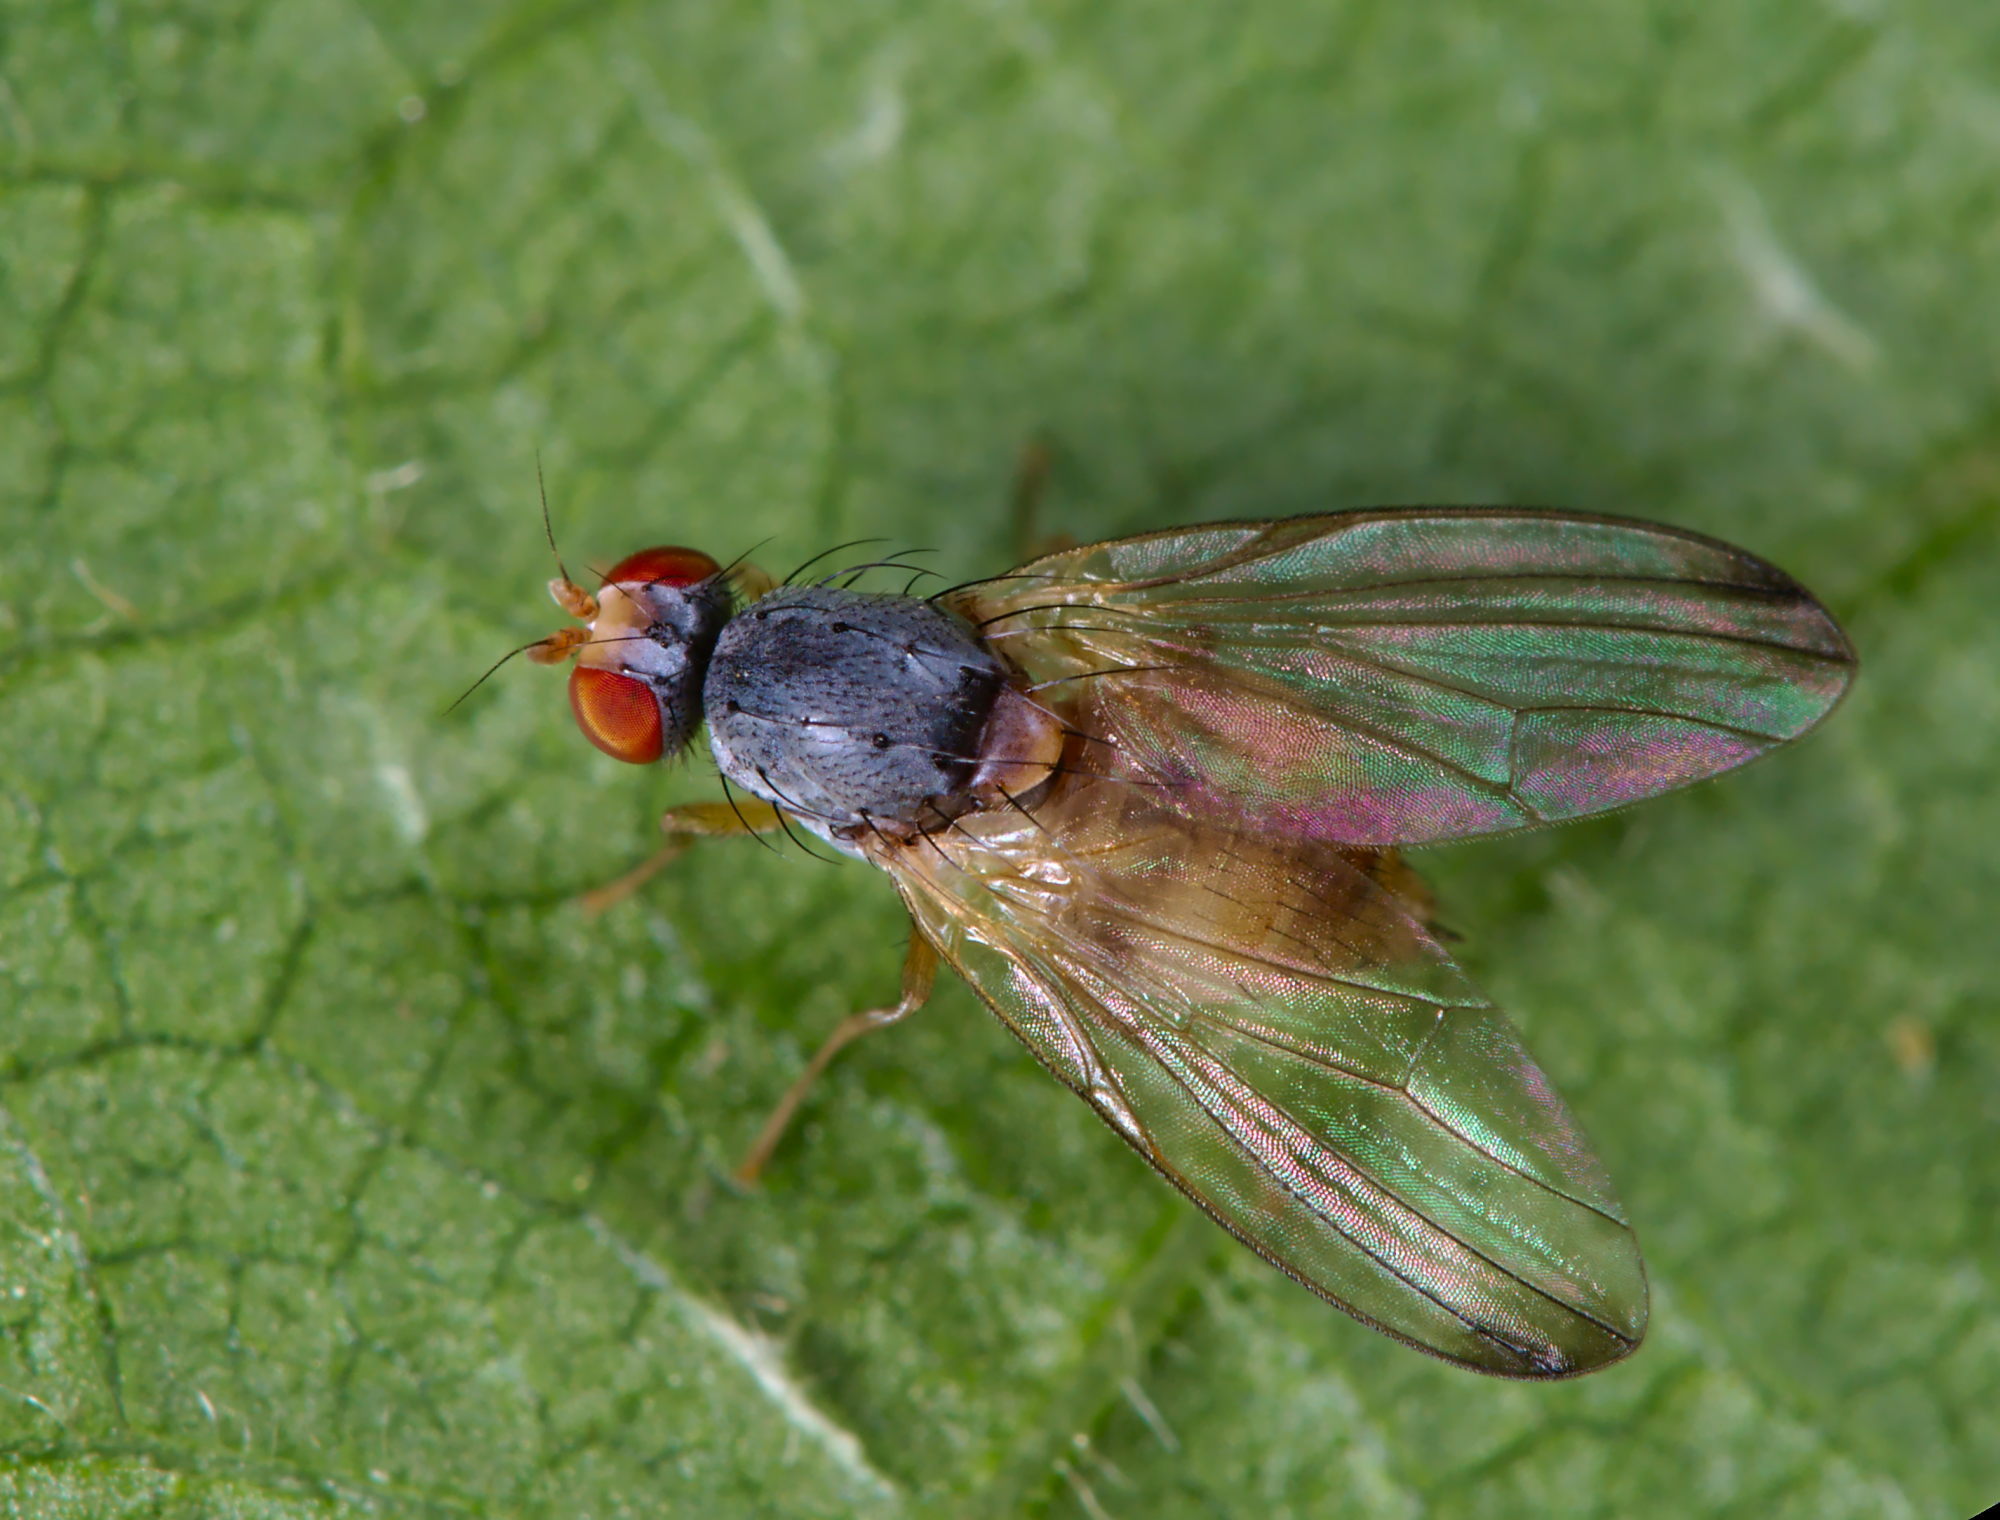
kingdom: Animalia
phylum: Arthropoda
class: Insecta
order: Diptera
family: Pallopteridae
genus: Palloptera
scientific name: Palloptera
